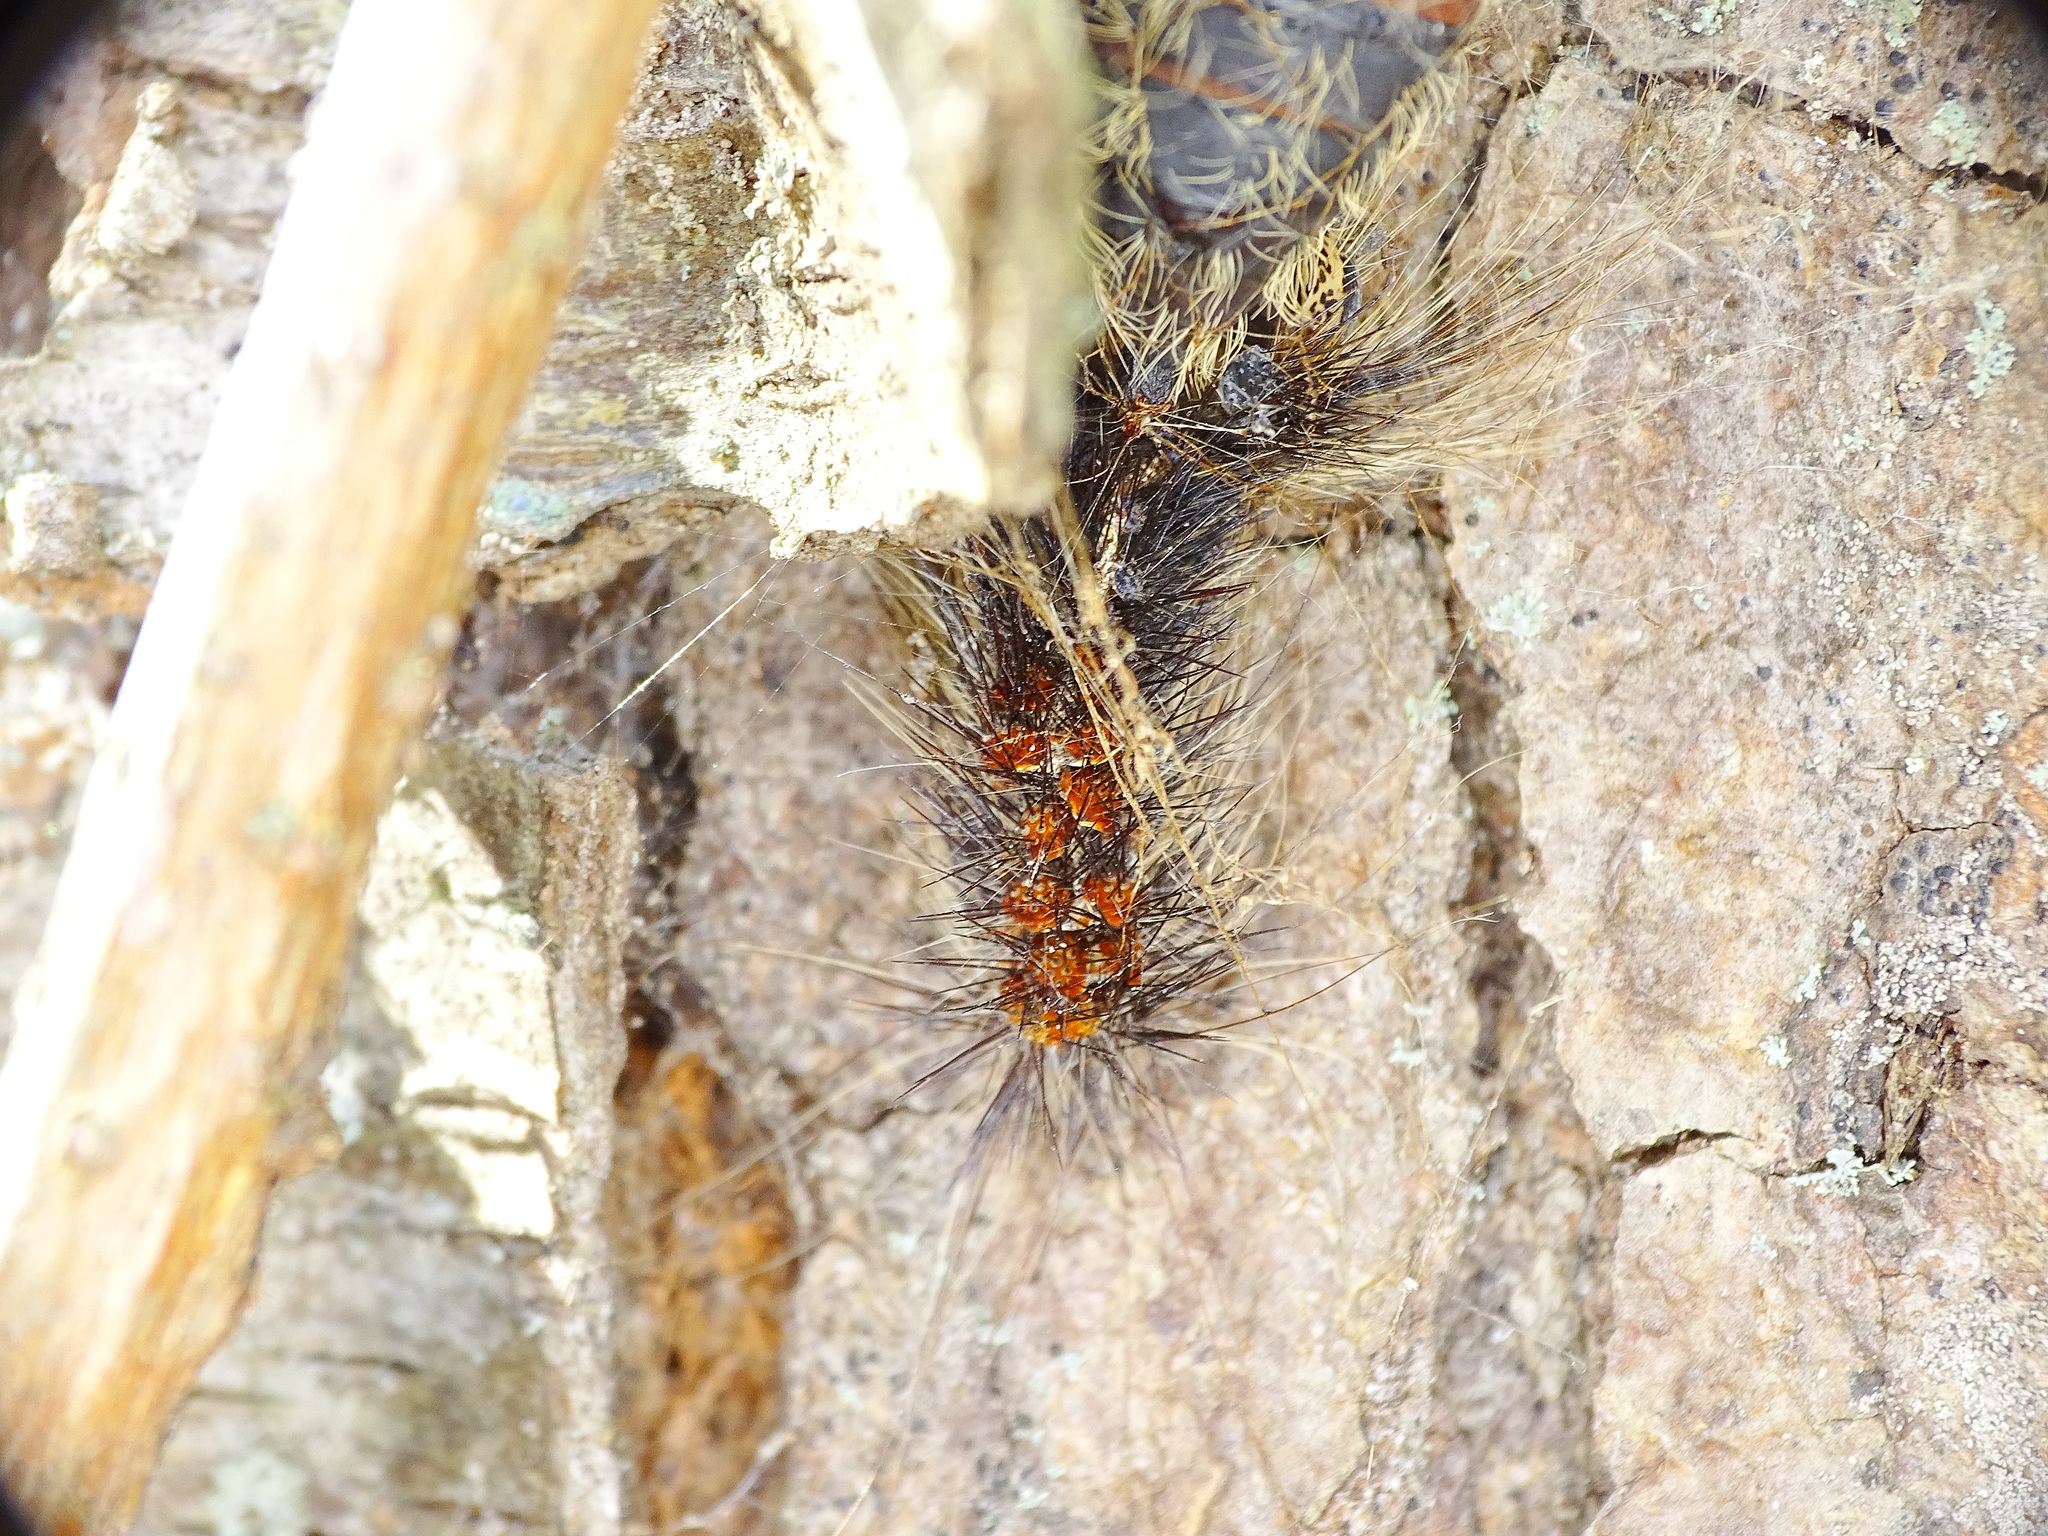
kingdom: Animalia
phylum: Arthropoda
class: Insecta
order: Lepidoptera
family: Erebidae
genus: Lymantria
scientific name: Lymantria dispar
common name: Gypsy moth
